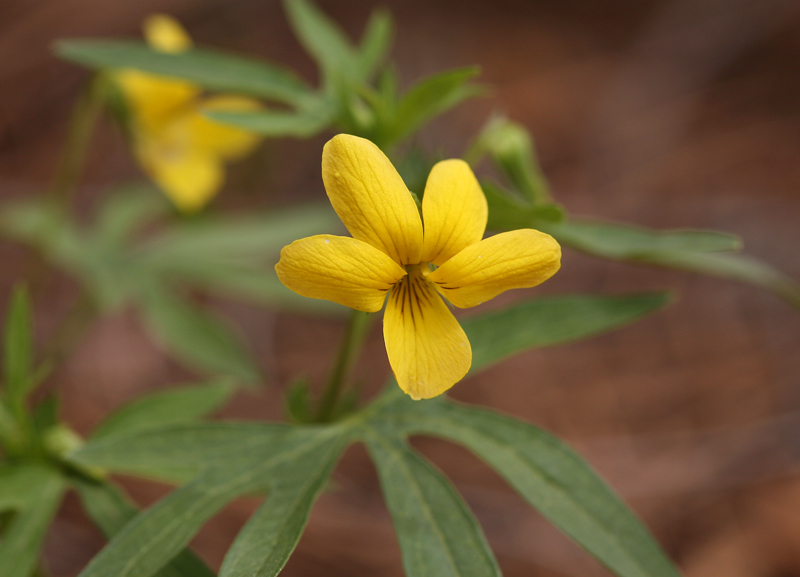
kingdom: Plantae
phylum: Tracheophyta
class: Magnoliopsida
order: Malpighiales
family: Violaceae
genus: Viola
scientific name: Viola lobata
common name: Pine violet
